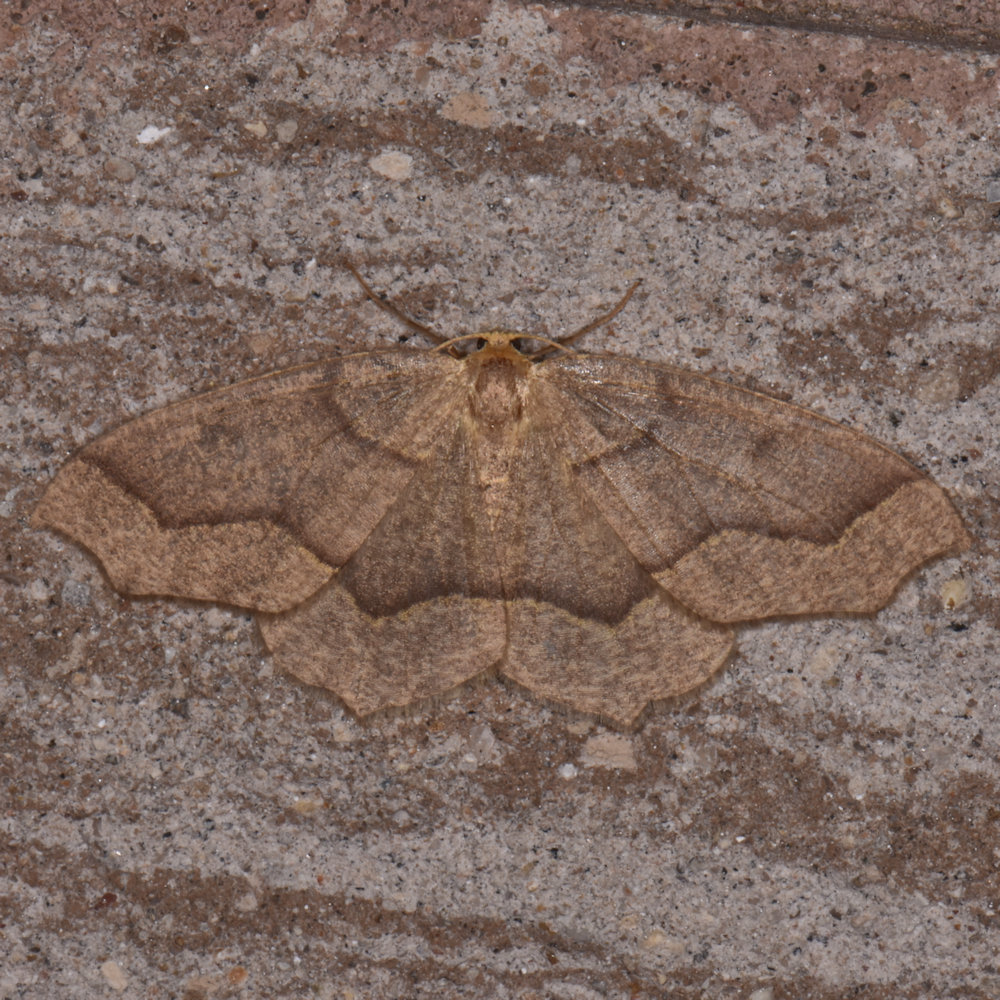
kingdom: Animalia
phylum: Arthropoda
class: Insecta
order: Lepidoptera
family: Geometridae
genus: Lambdina
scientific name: Lambdina fiscellaria
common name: Hemlock looper
